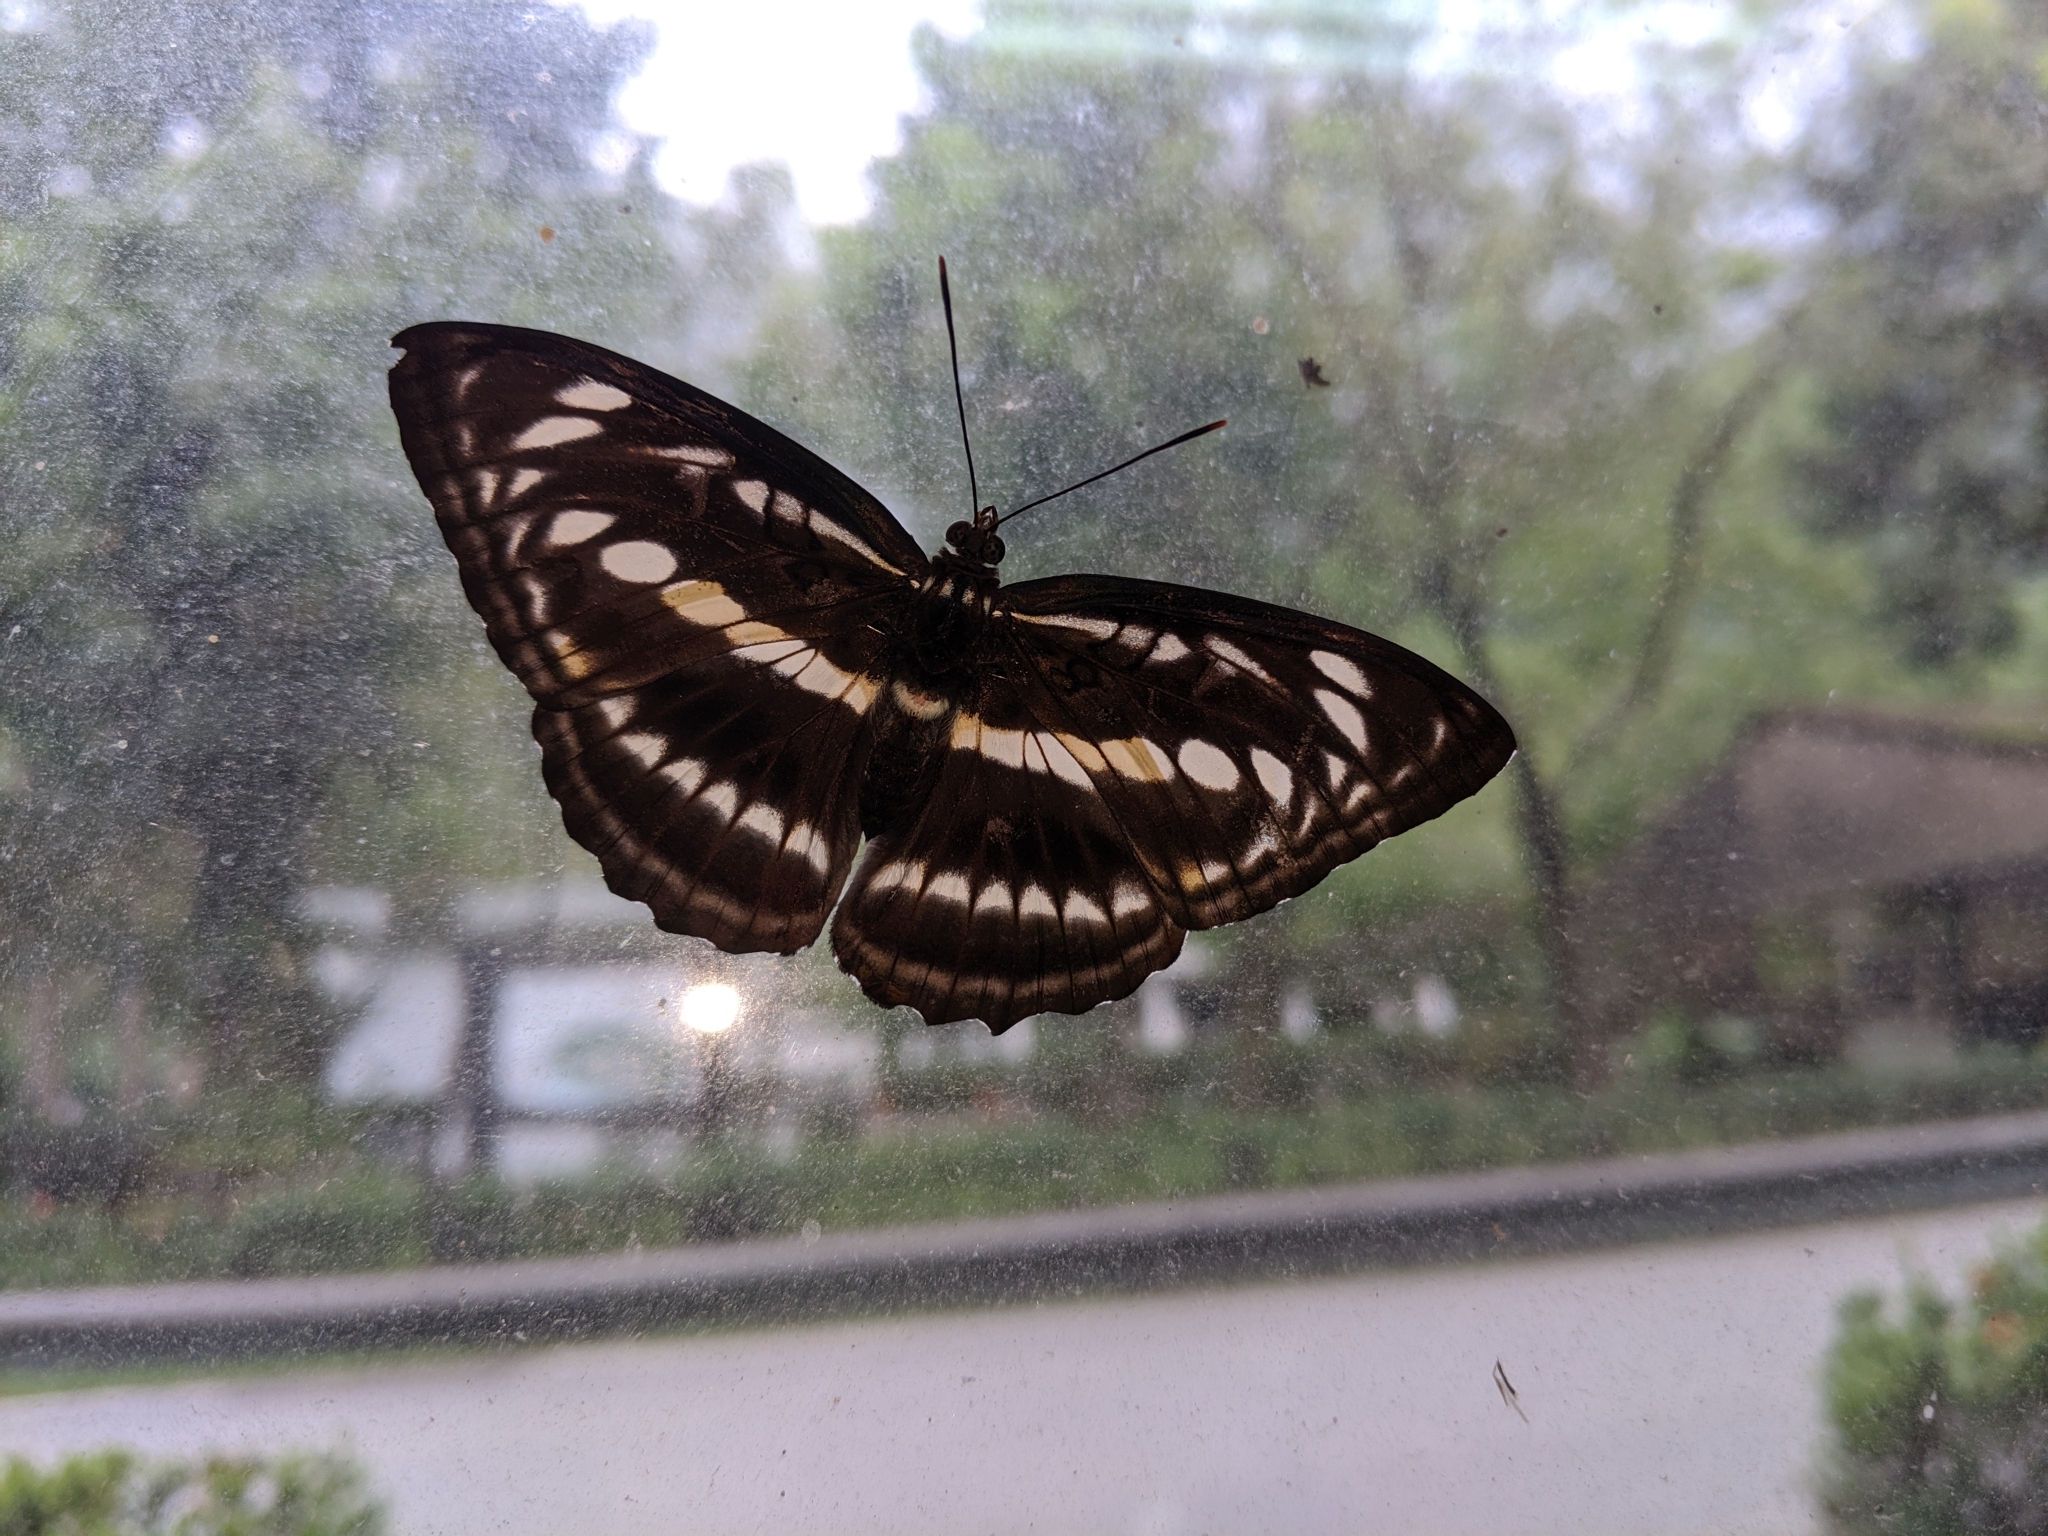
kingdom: Animalia
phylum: Arthropoda
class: Insecta
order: Lepidoptera
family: Nymphalidae
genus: Parathyma
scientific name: Parathyma selenophora
